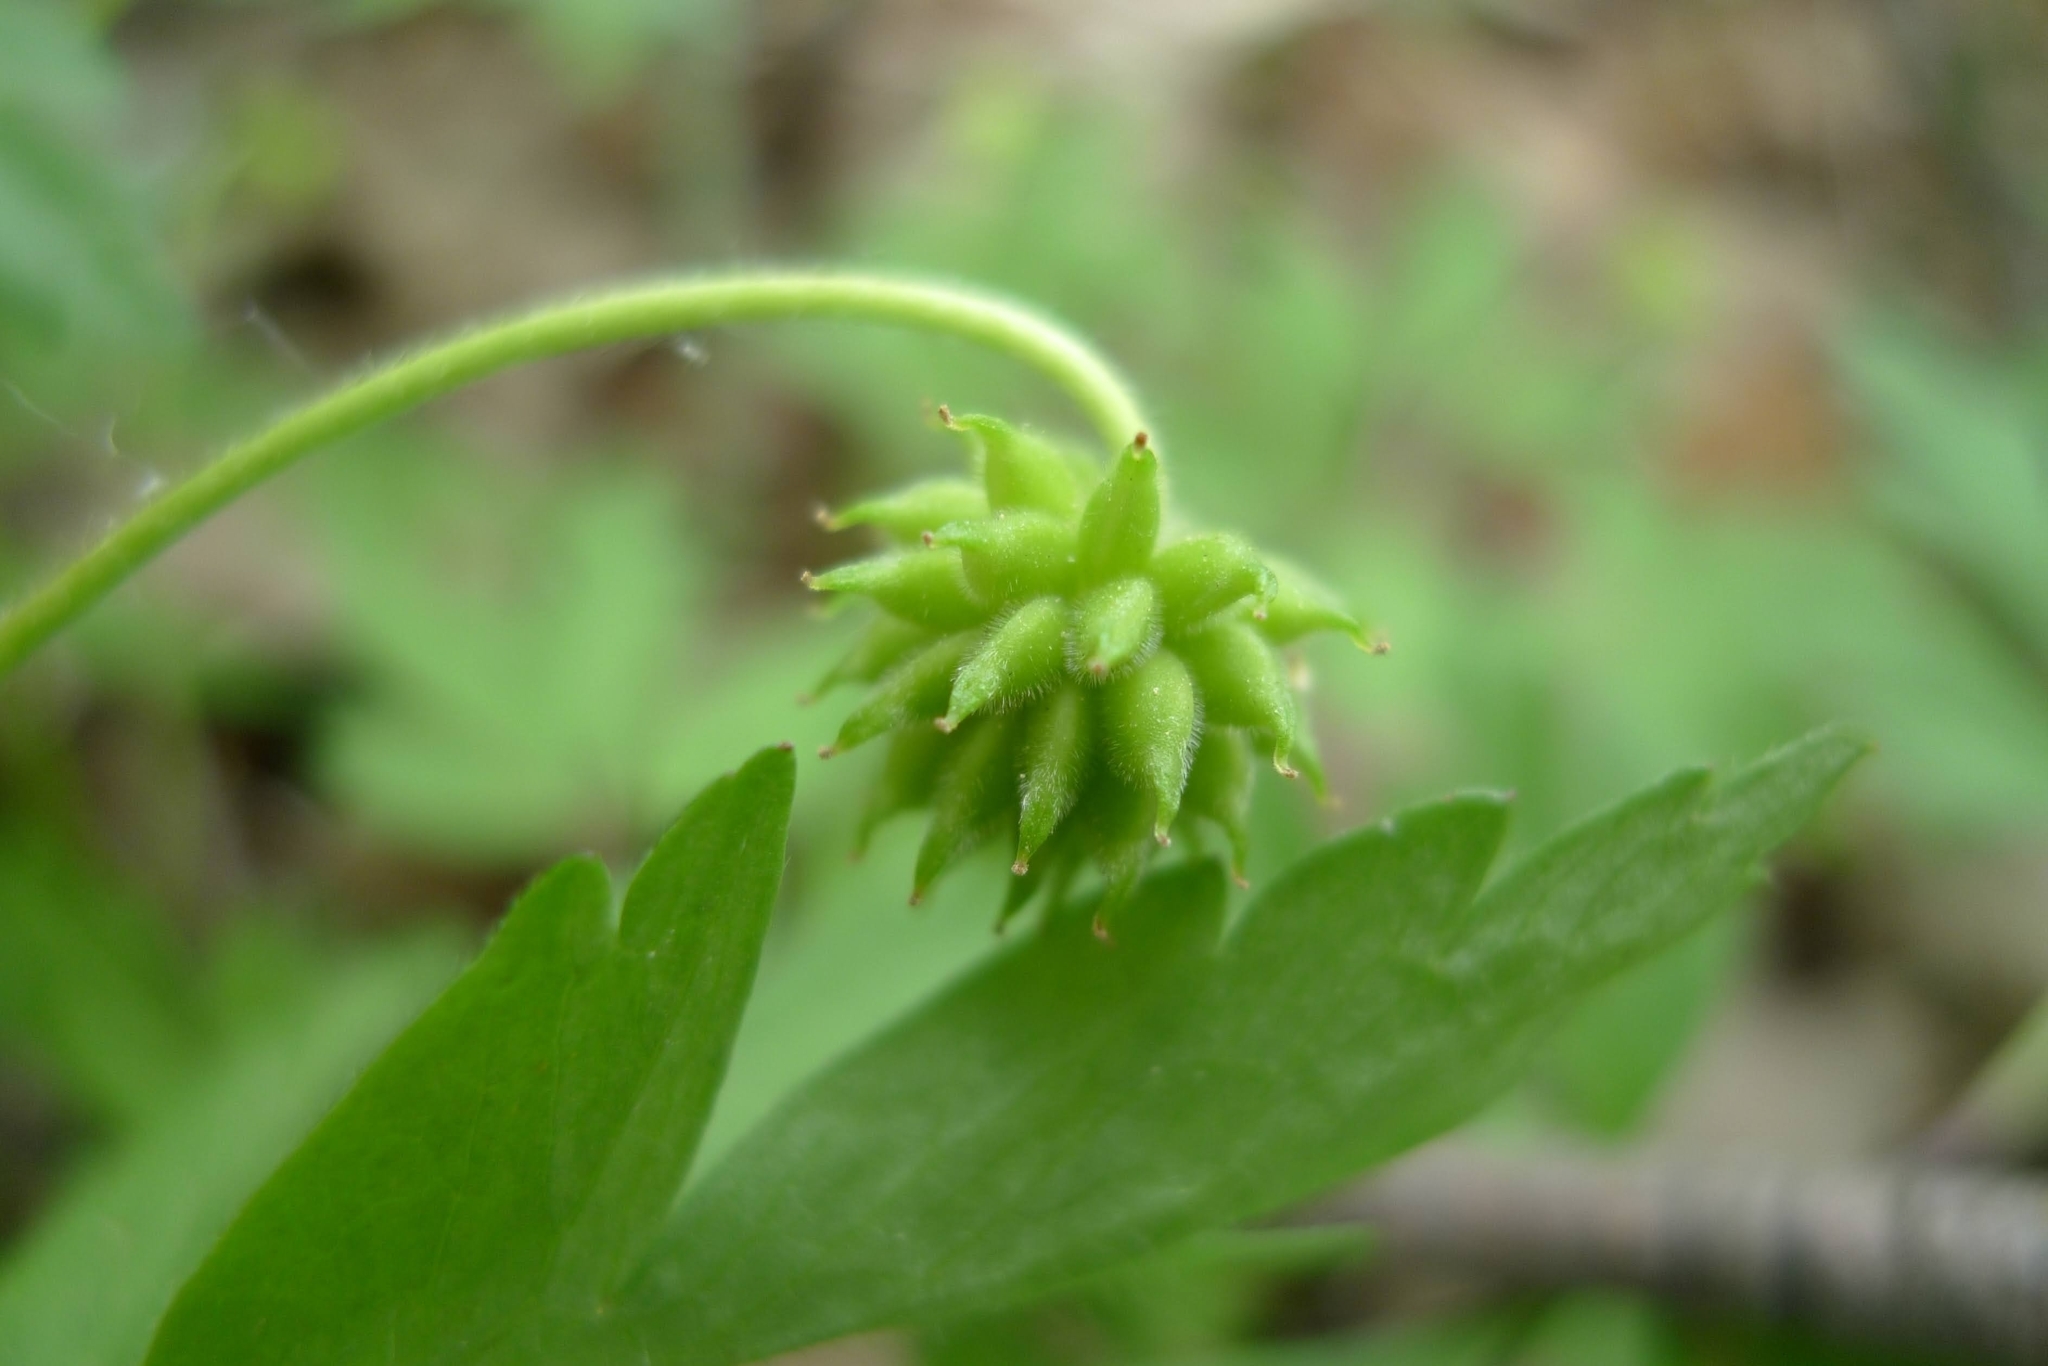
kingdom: Plantae
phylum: Tracheophyta
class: Magnoliopsida
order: Ranunculales
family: Ranunculaceae
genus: Anemone
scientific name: Anemone nemorosa
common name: Wood anemone
